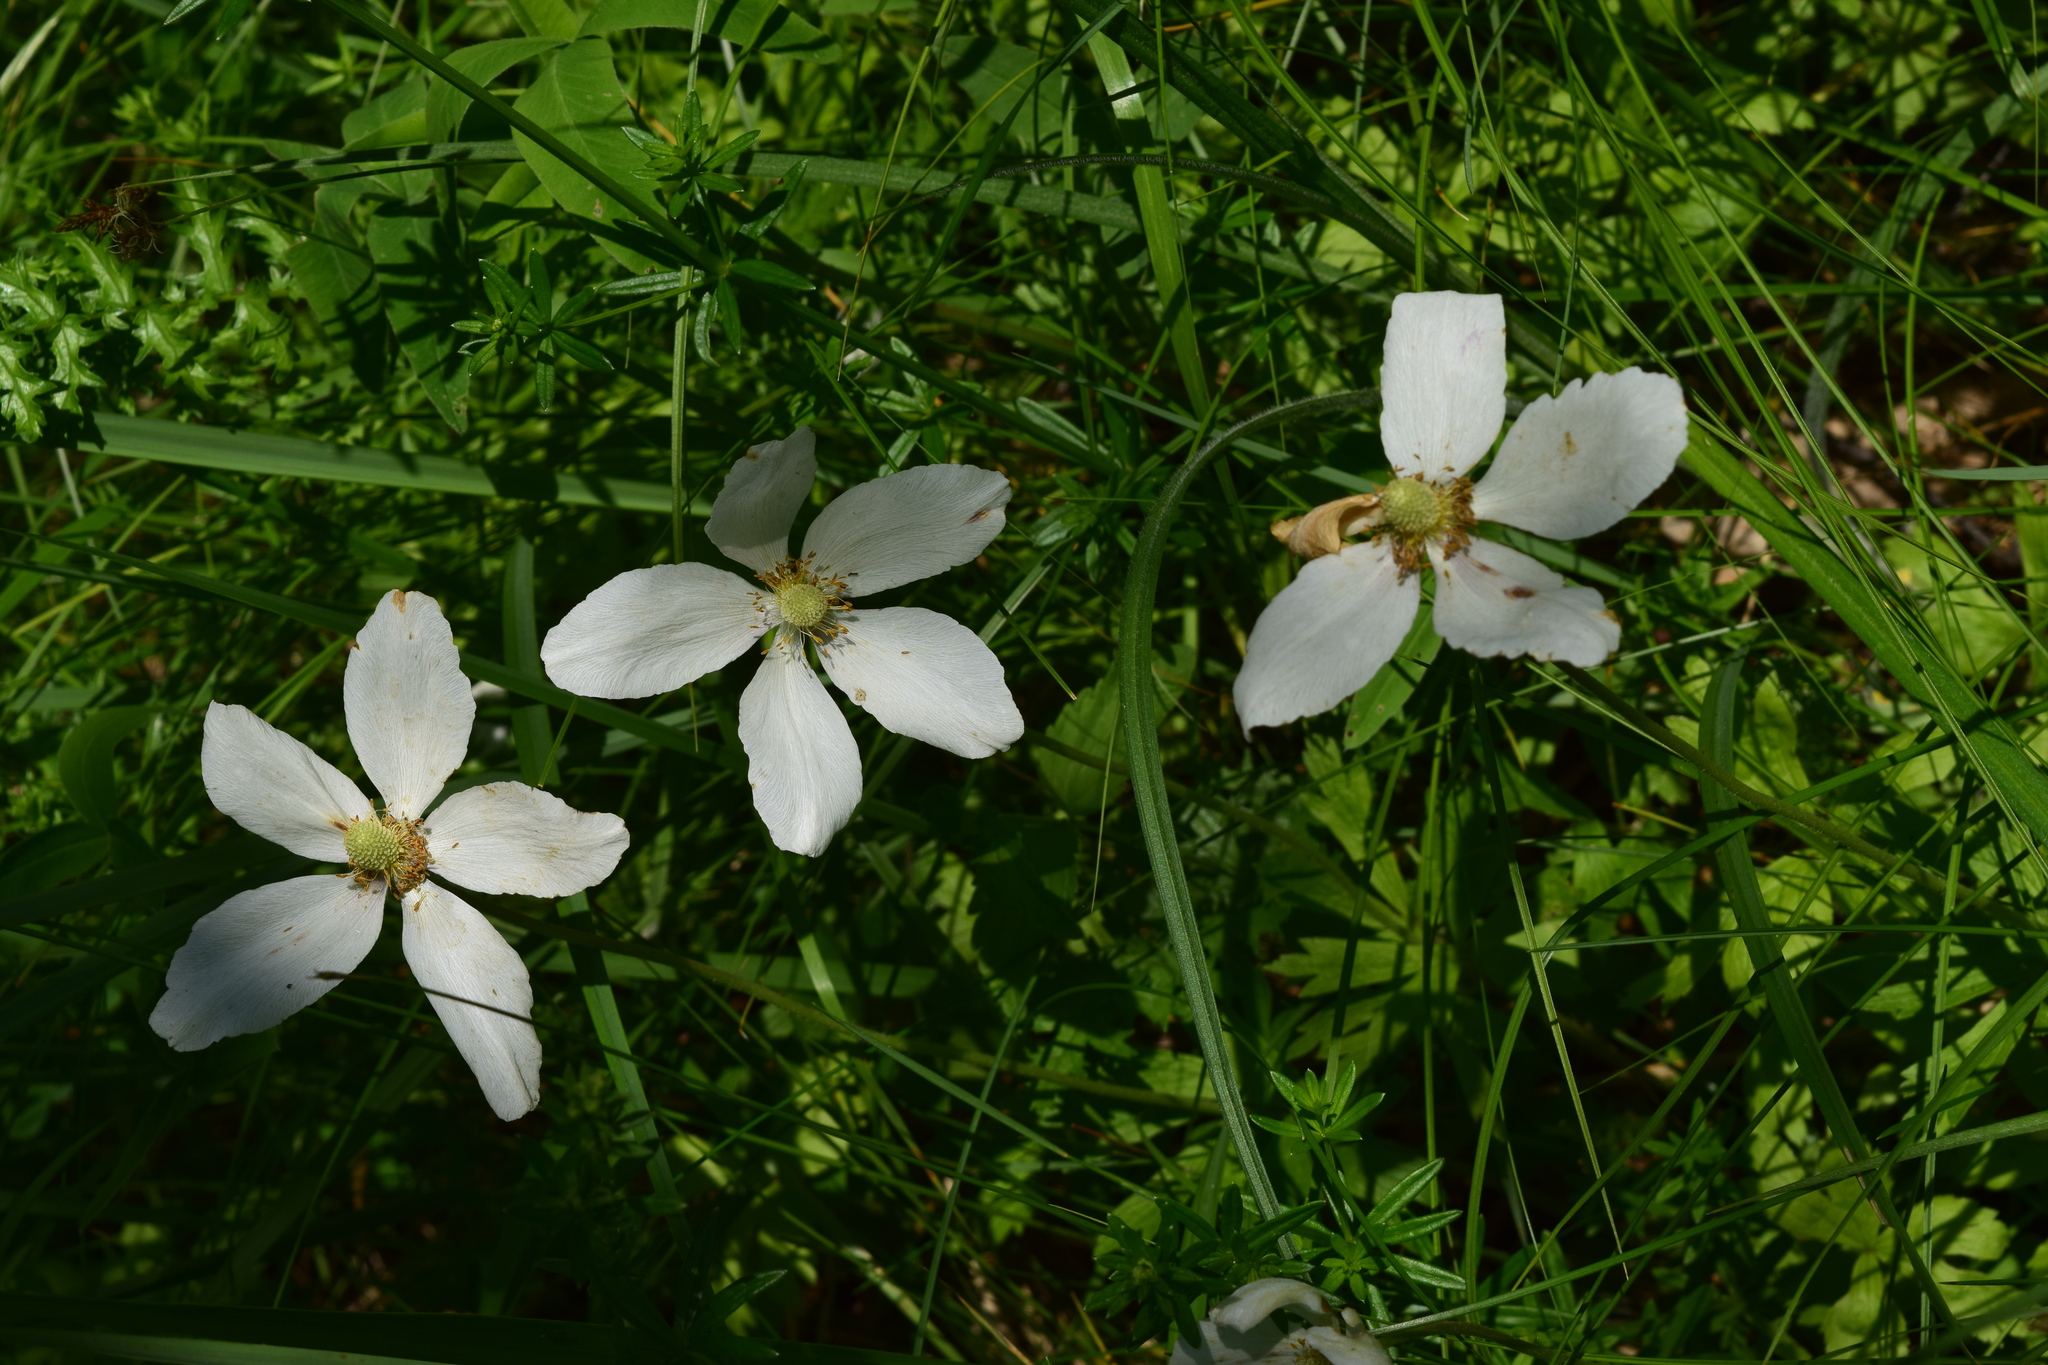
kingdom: Plantae
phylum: Tracheophyta
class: Magnoliopsida
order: Ranunculales
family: Ranunculaceae
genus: Anemone
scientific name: Anemone sylvestris
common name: Snowdrop anemone
